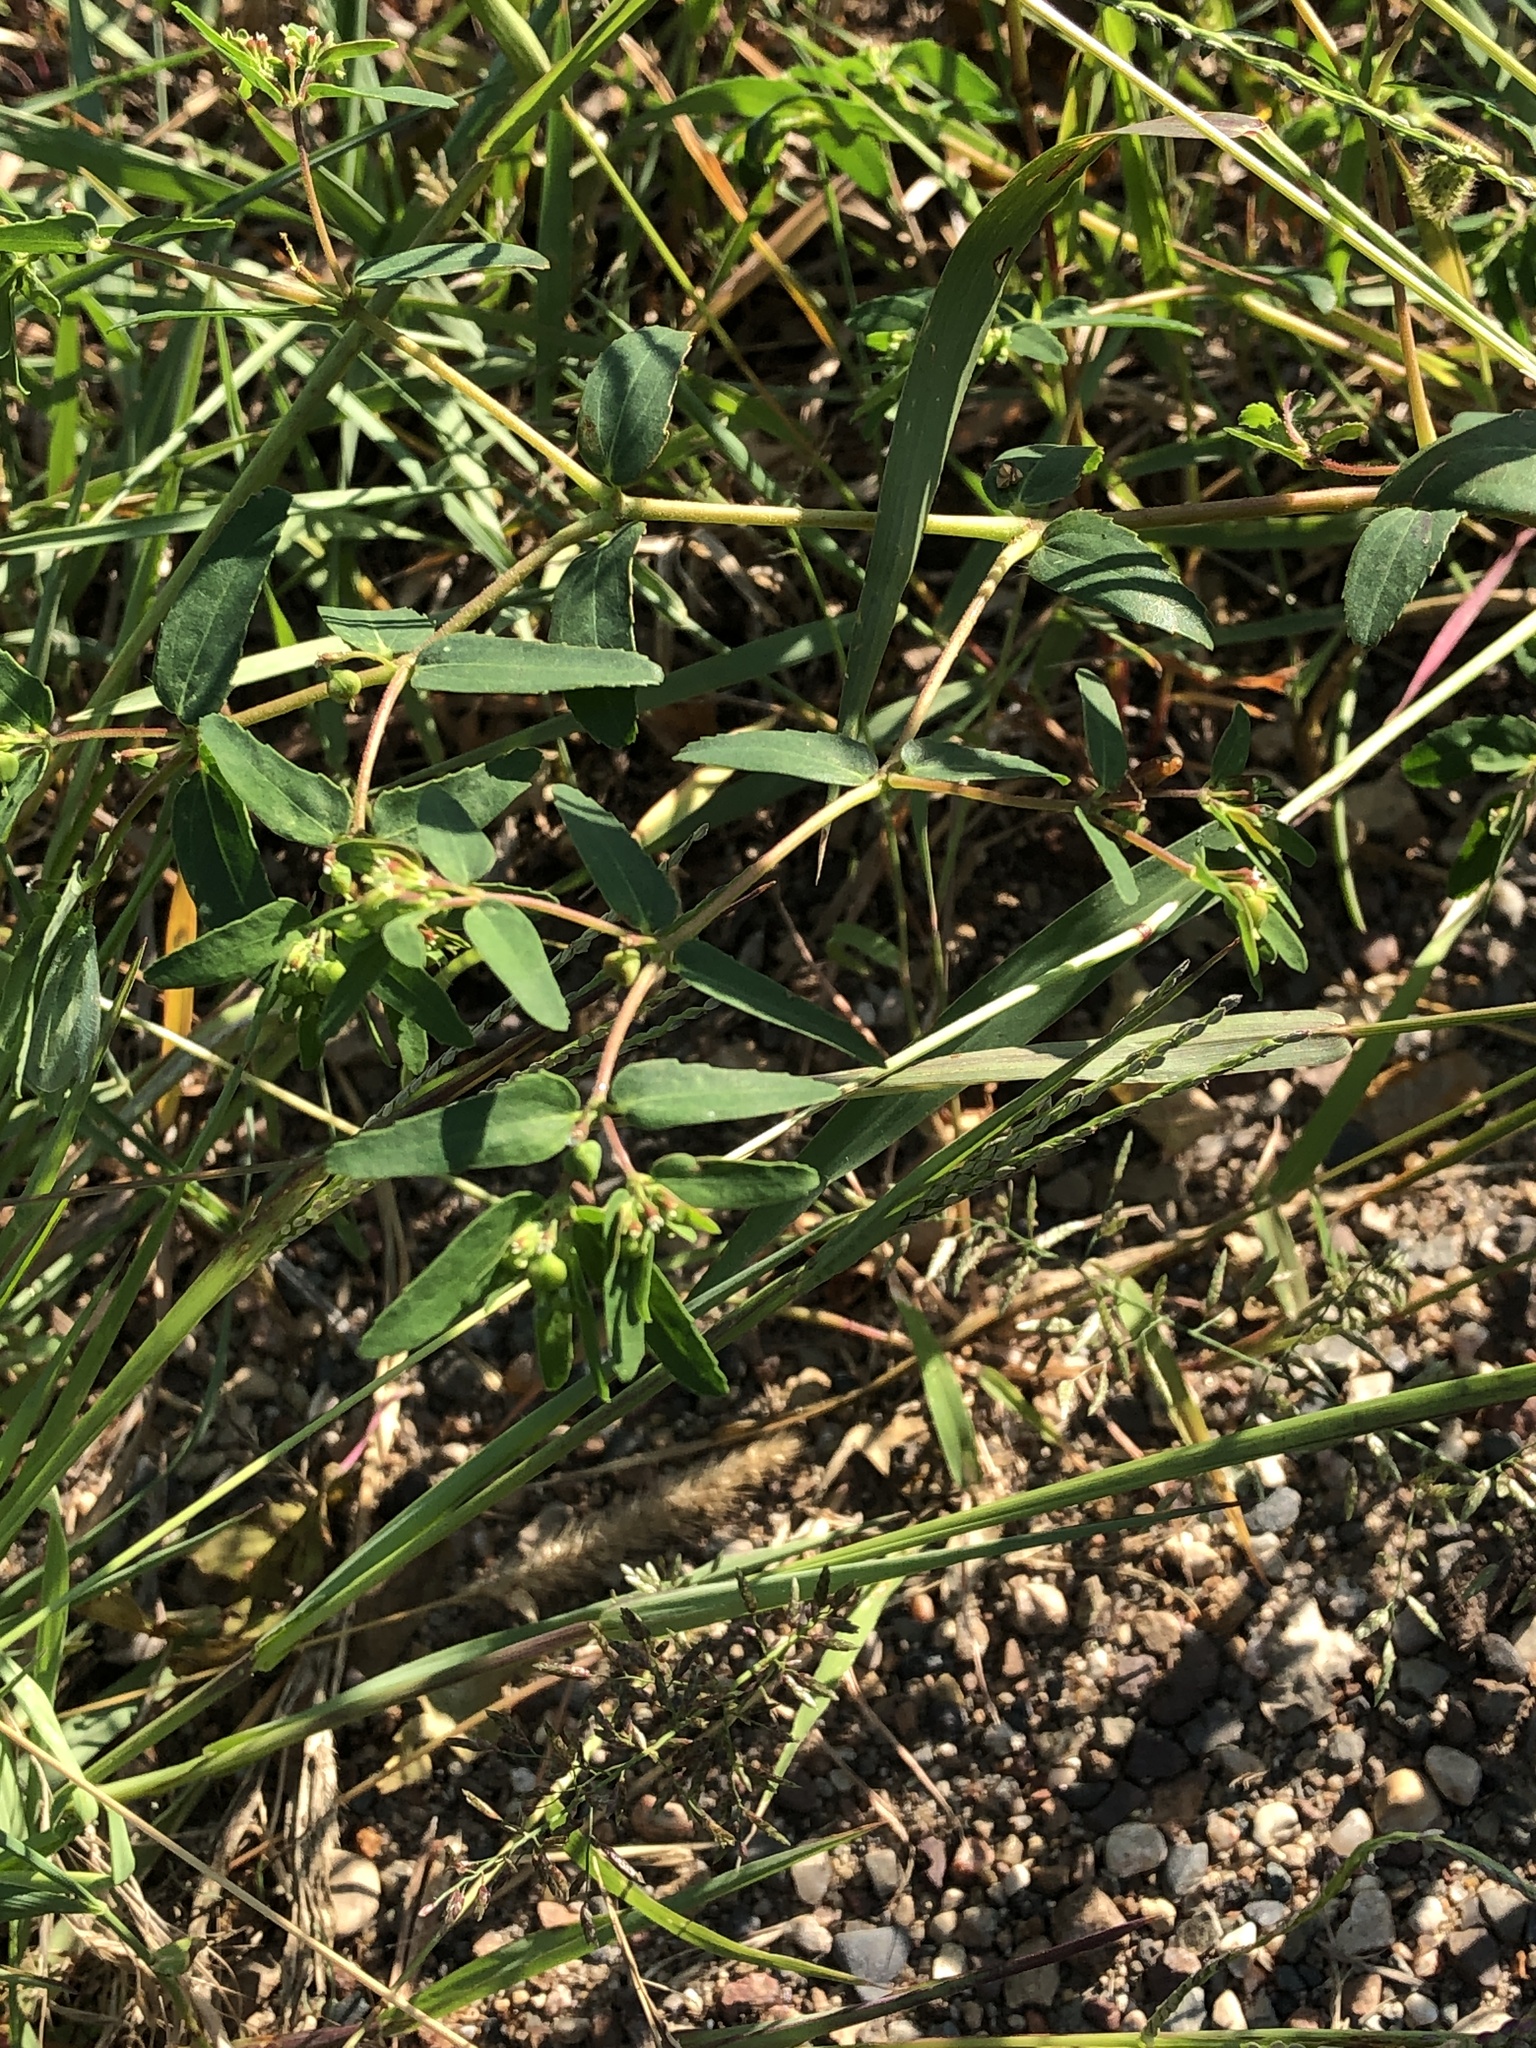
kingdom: Plantae
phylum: Tracheophyta
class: Magnoliopsida
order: Malpighiales
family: Euphorbiaceae
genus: Euphorbia
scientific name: Euphorbia nutans
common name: Eyebane
